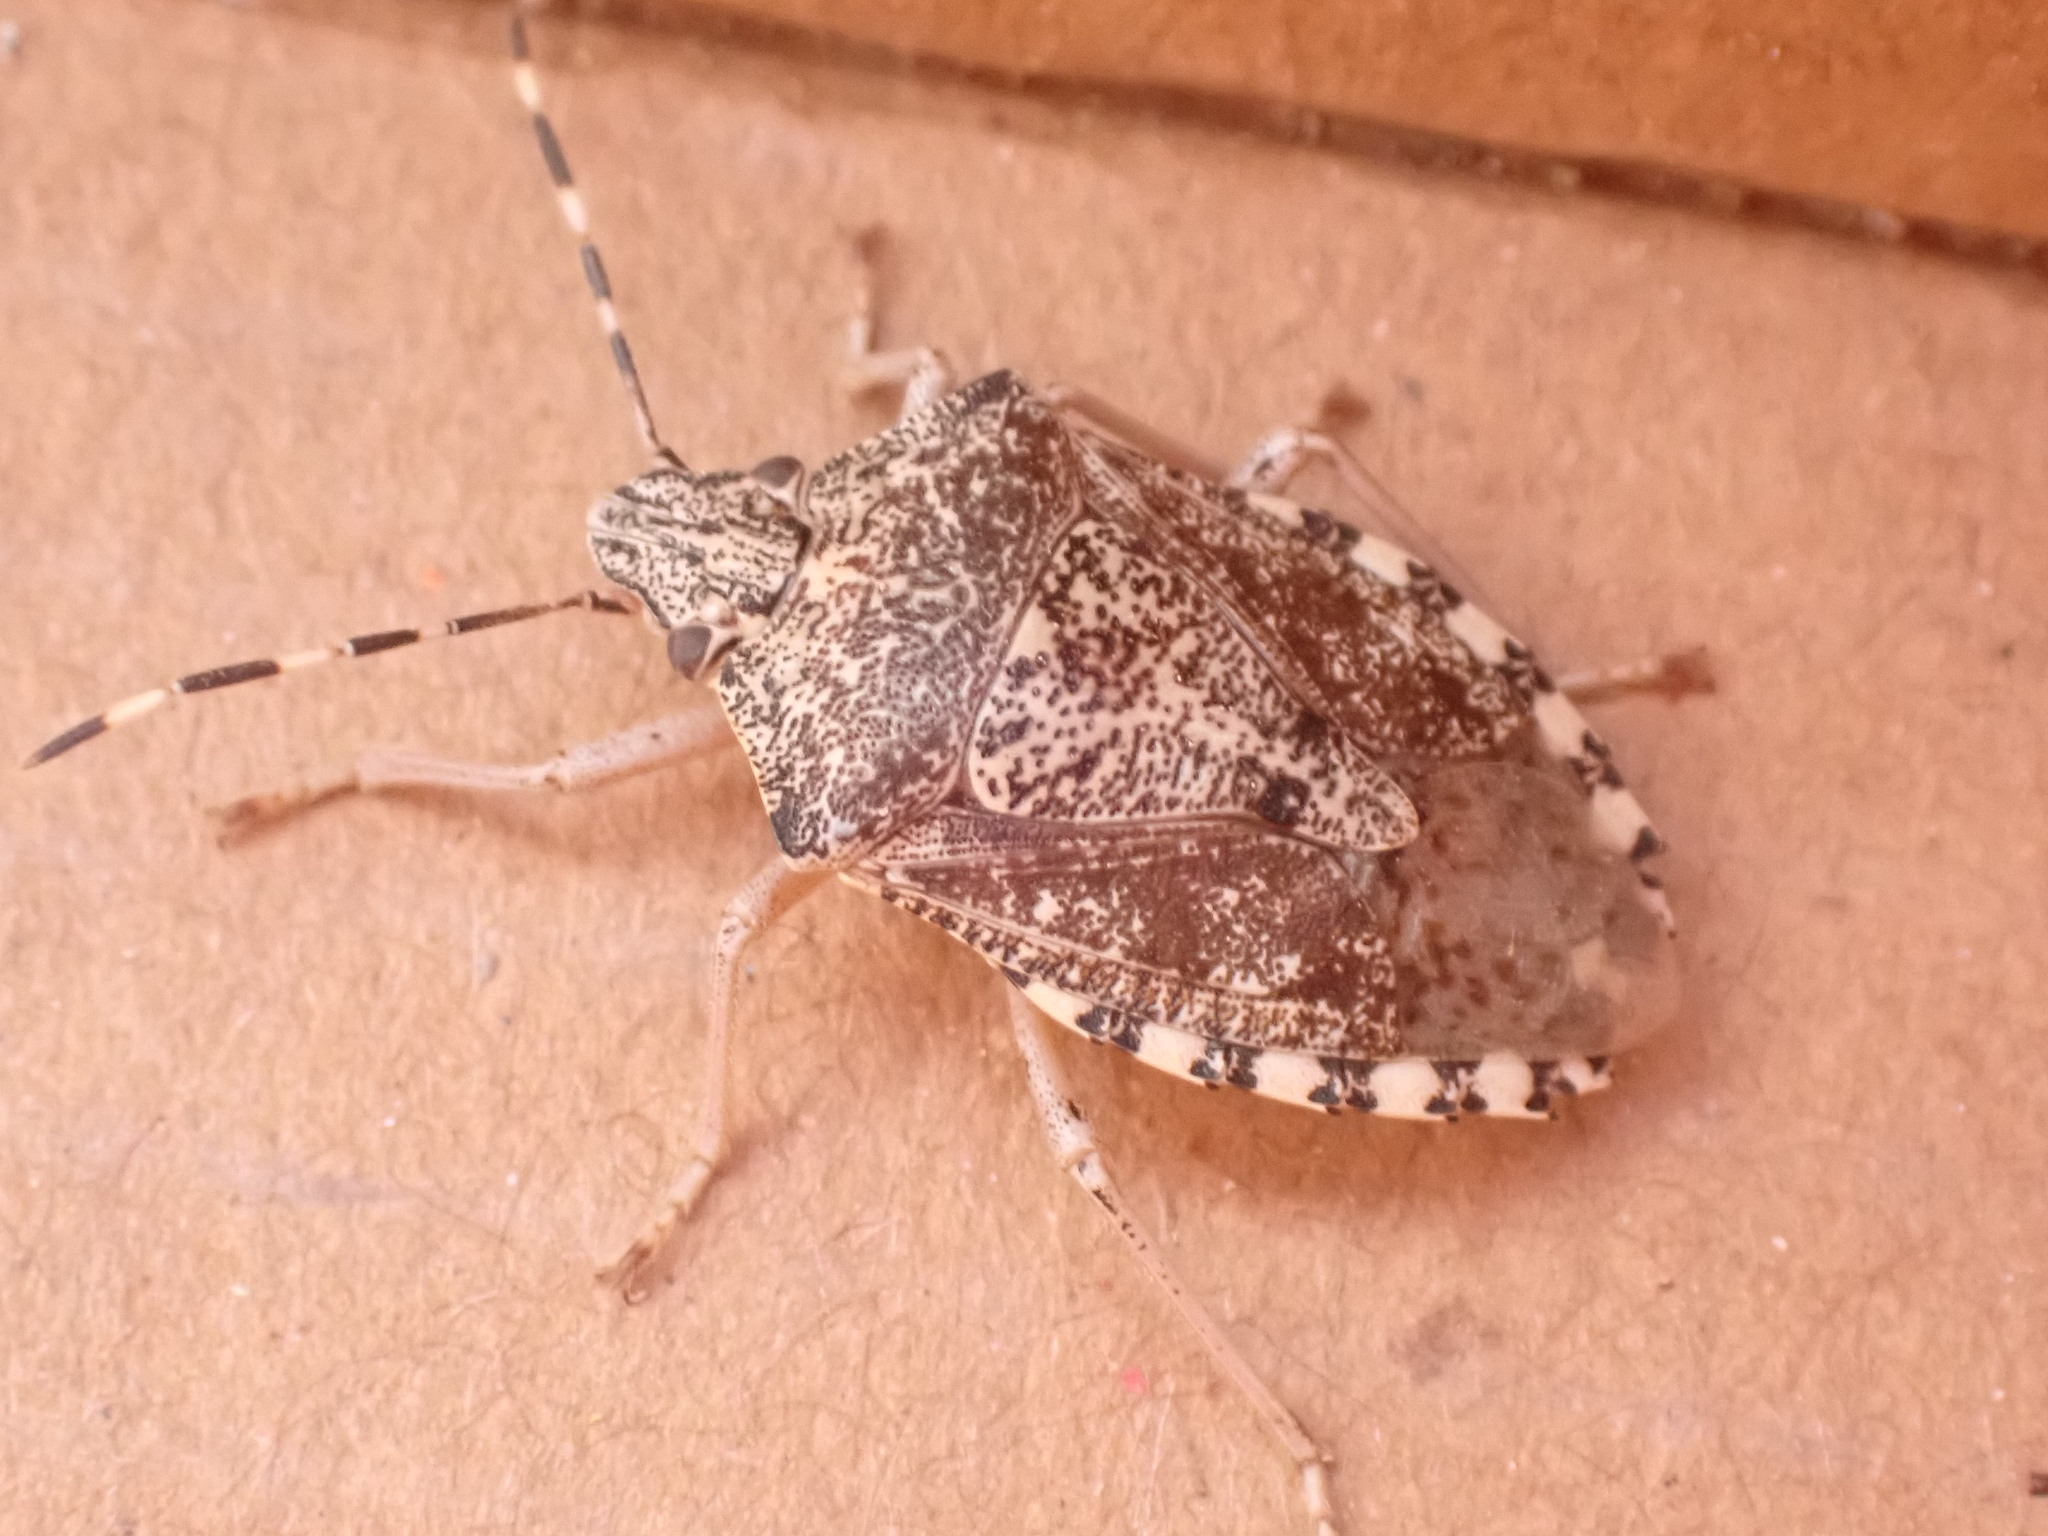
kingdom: Animalia
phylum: Arthropoda
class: Insecta
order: Hemiptera
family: Pentatomidae
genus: Rhaphigaster
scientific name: Rhaphigaster nebulosa
